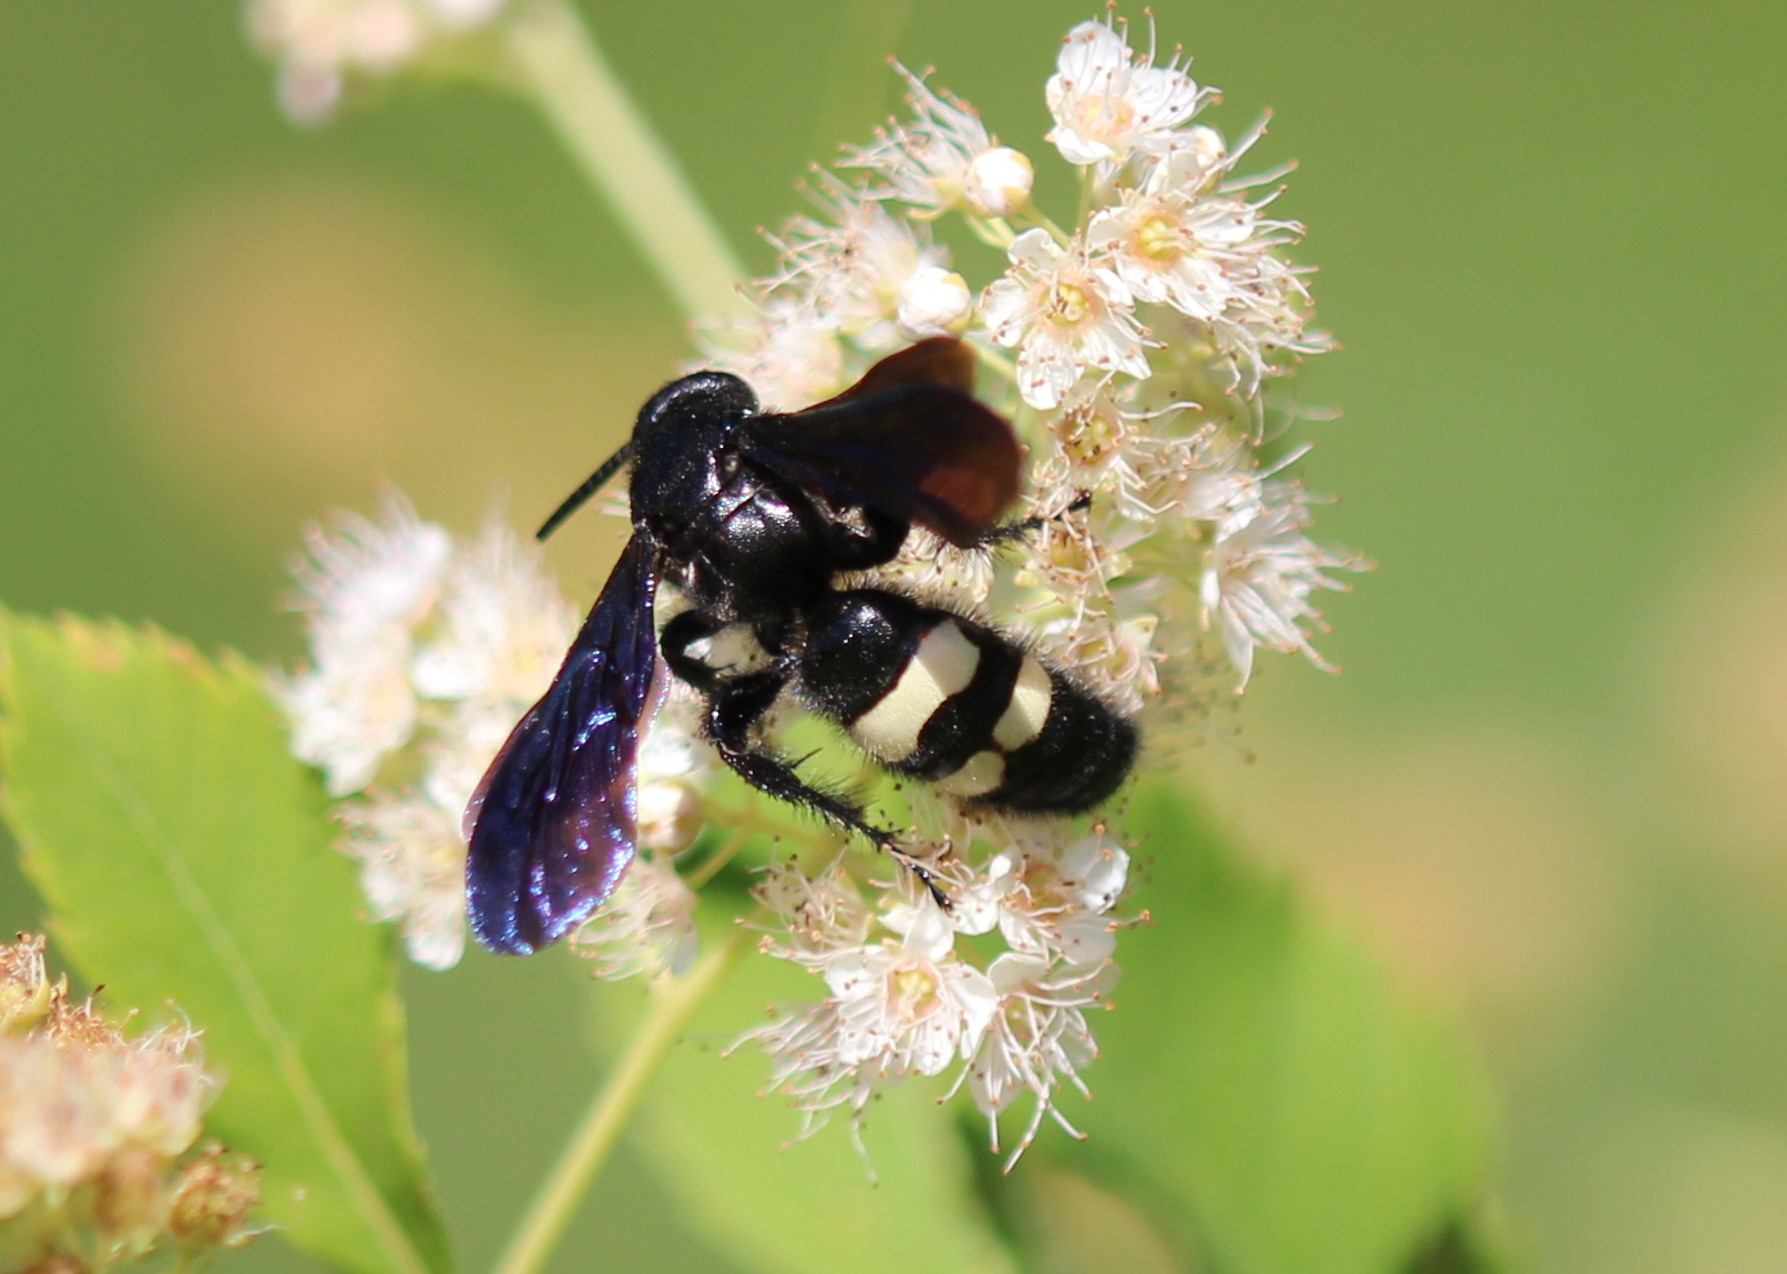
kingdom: Animalia
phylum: Arthropoda
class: Insecta
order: Hymenoptera
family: Scoliidae
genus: Scolia
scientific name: Scolia bicincta
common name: Double-banded scoliid wasp
